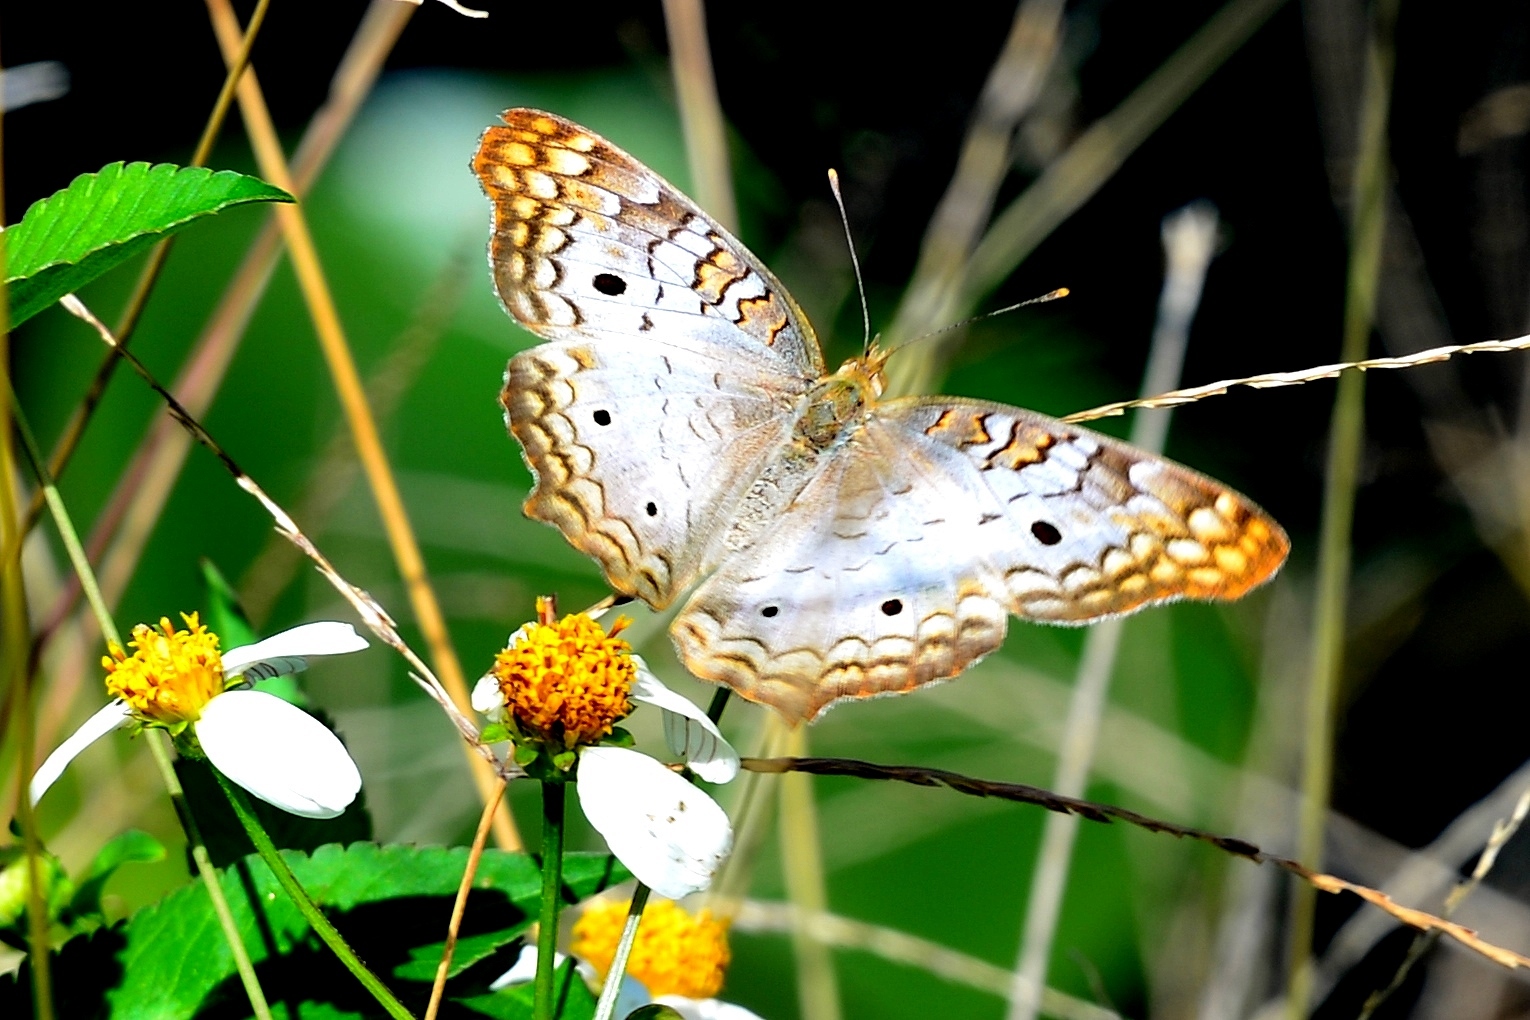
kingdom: Animalia
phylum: Arthropoda
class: Insecta
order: Lepidoptera
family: Nymphalidae
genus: Anartia
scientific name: Anartia jatrophae
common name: White peacock
